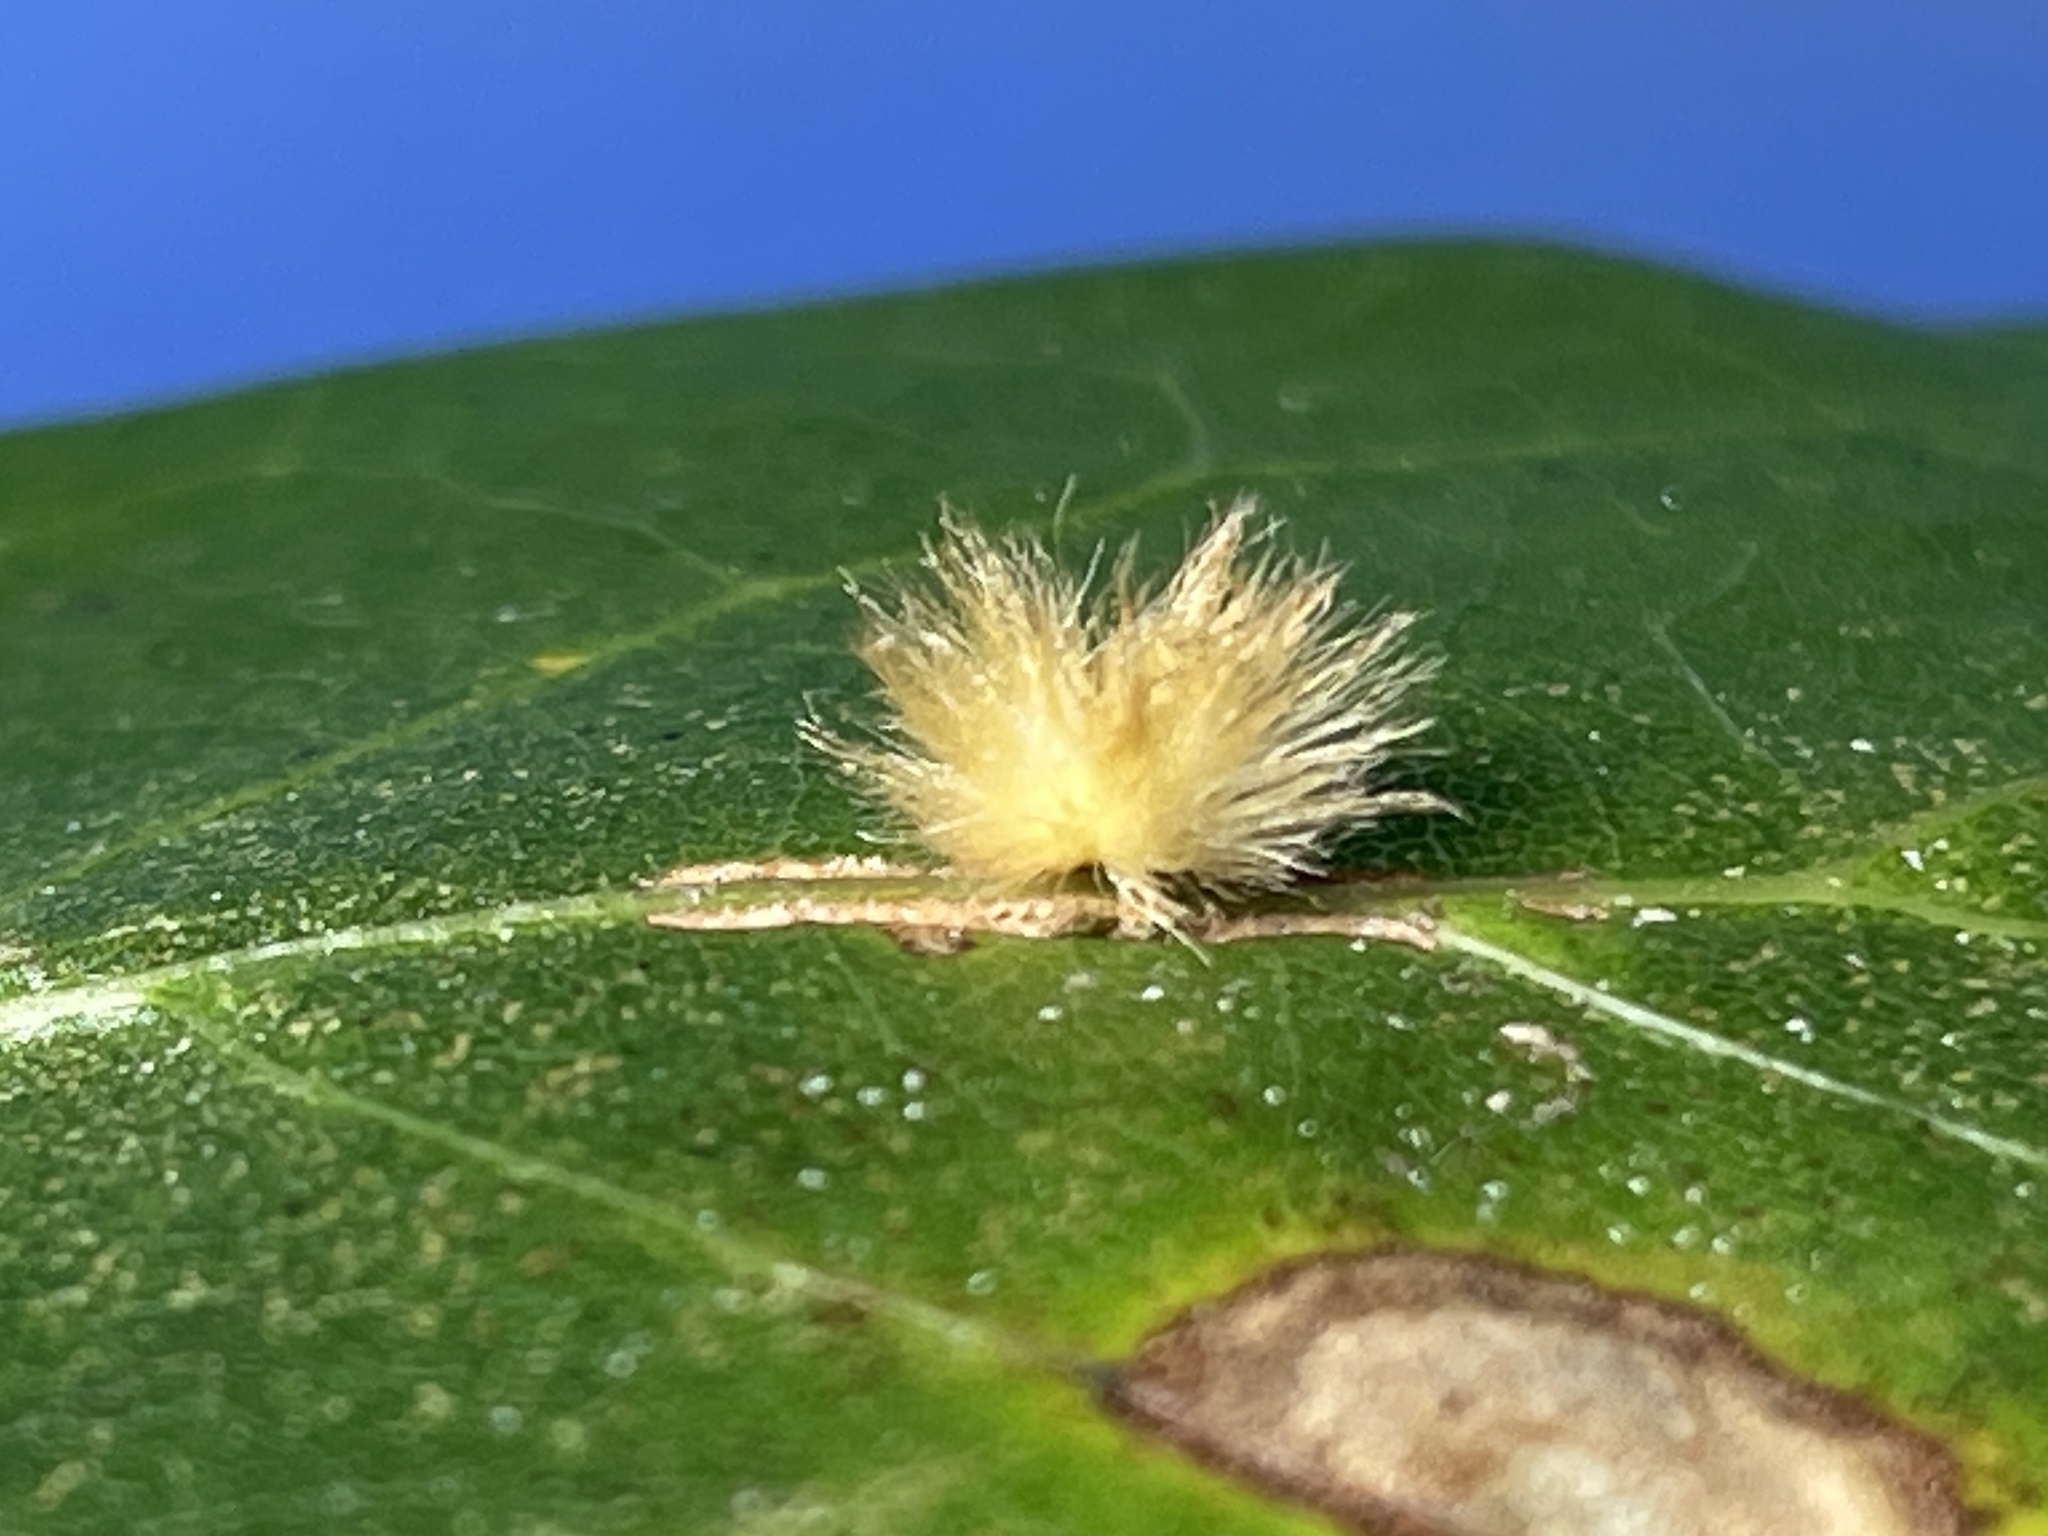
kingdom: Animalia
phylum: Arthropoda
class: Insecta
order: Hymenoptera
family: Cynipidae
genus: Callirhytis
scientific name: Callirhytis
